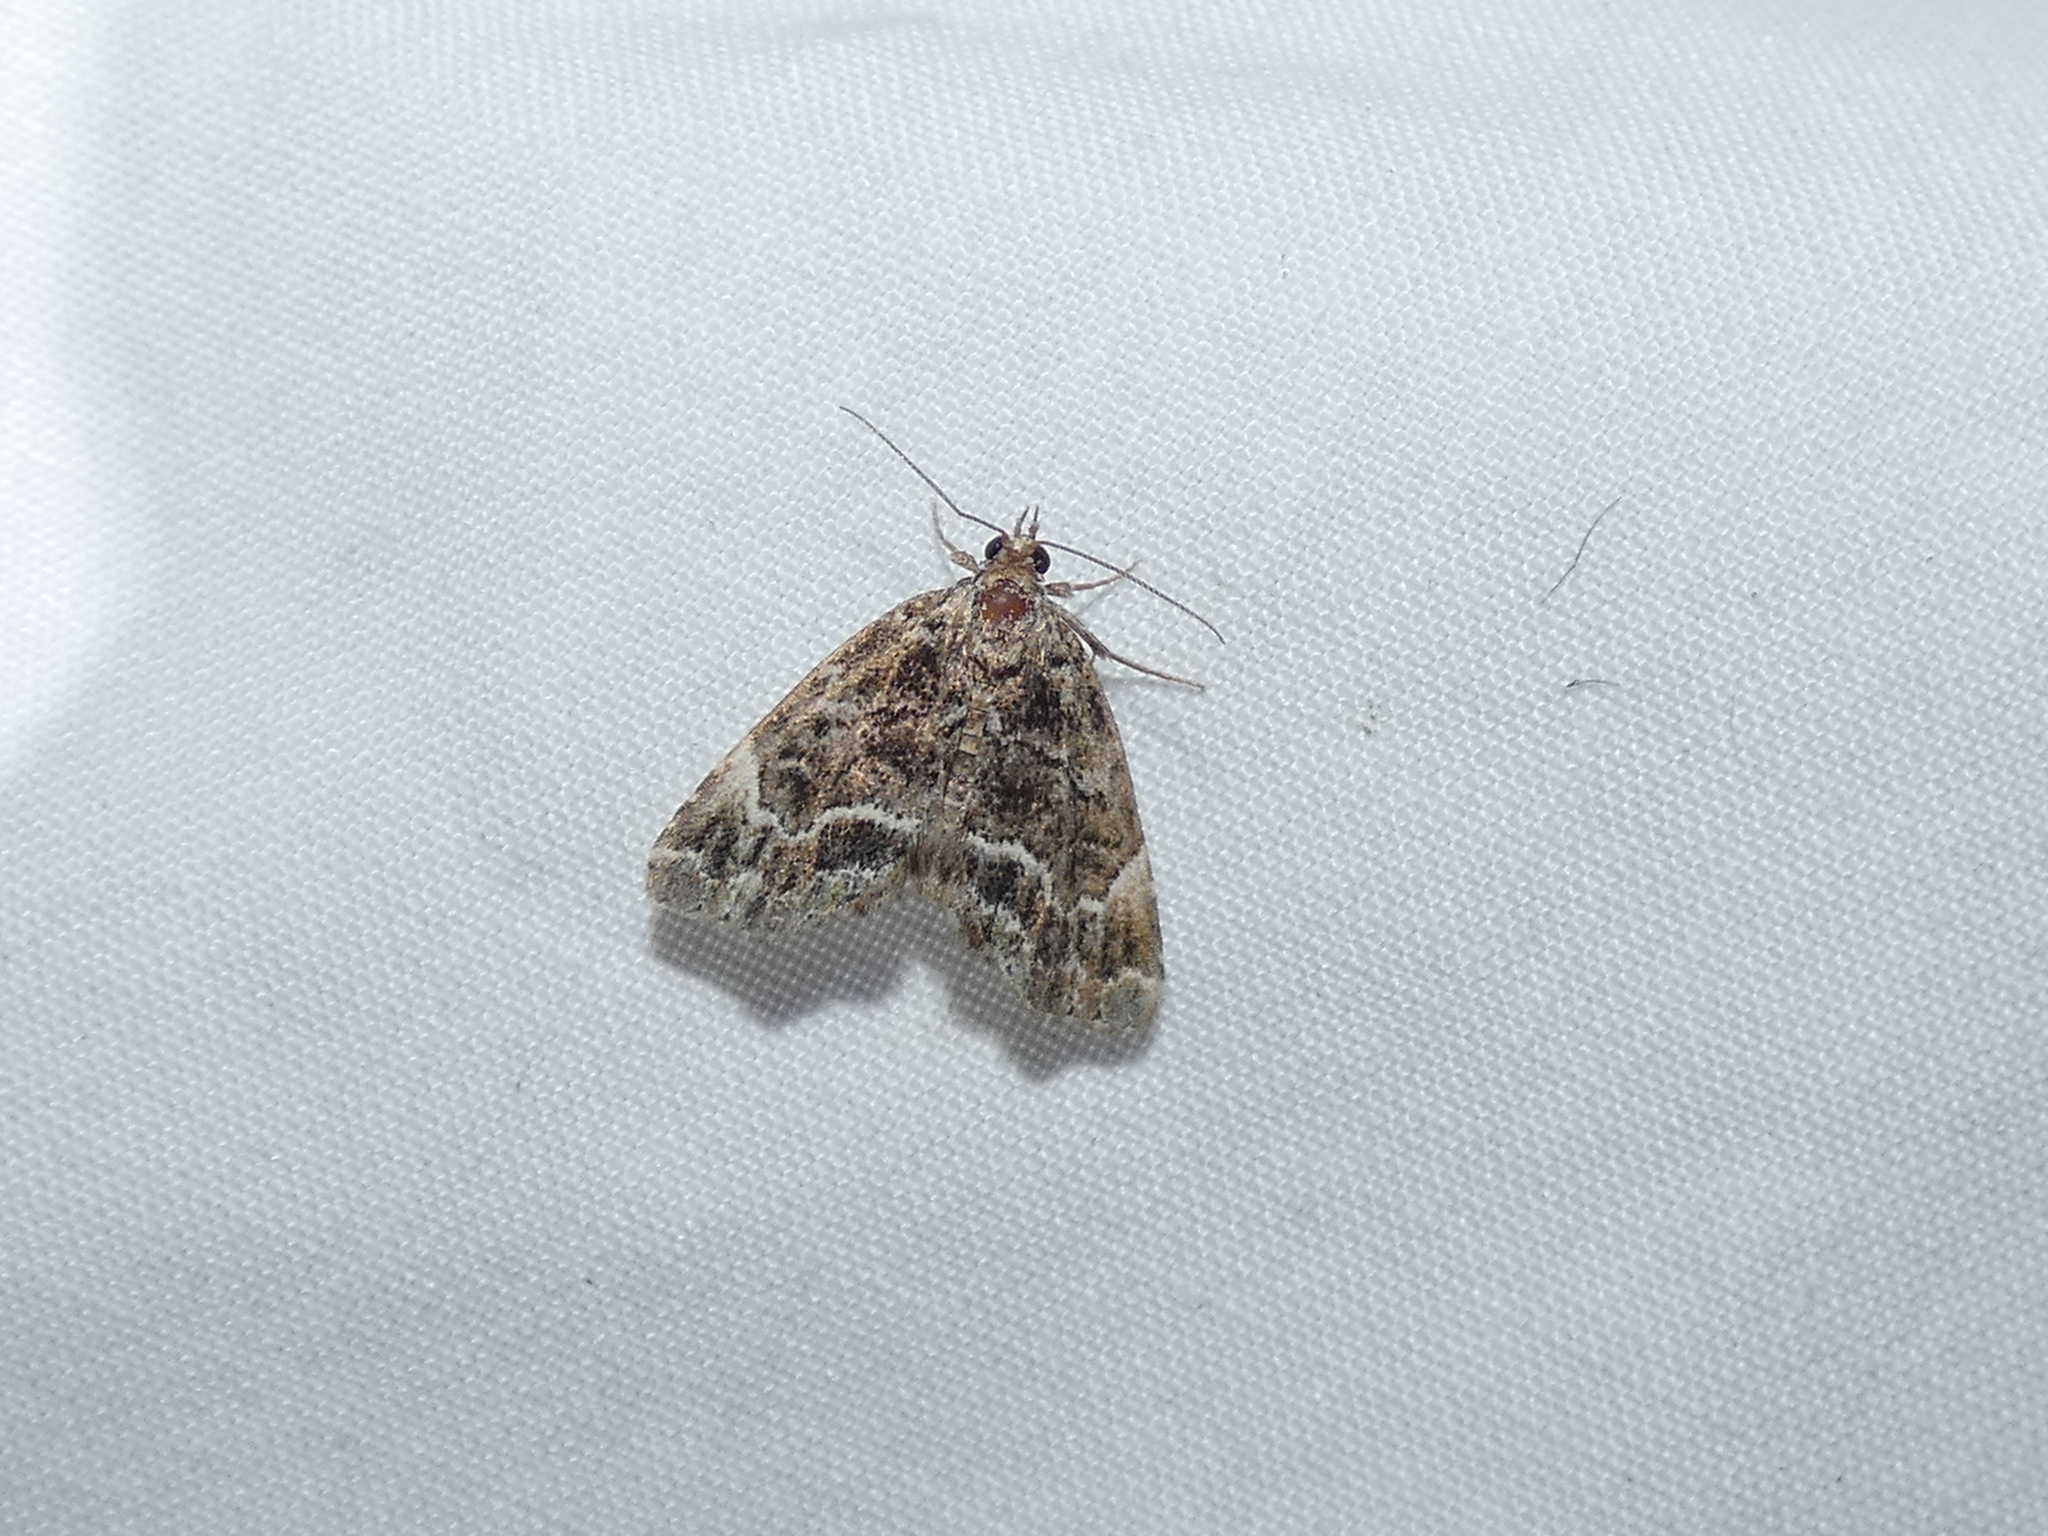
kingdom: Animalia
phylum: Arthropoda
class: Insecta
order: Lepidoptera
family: Erebidae
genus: Cutina
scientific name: Cutina arcuata
